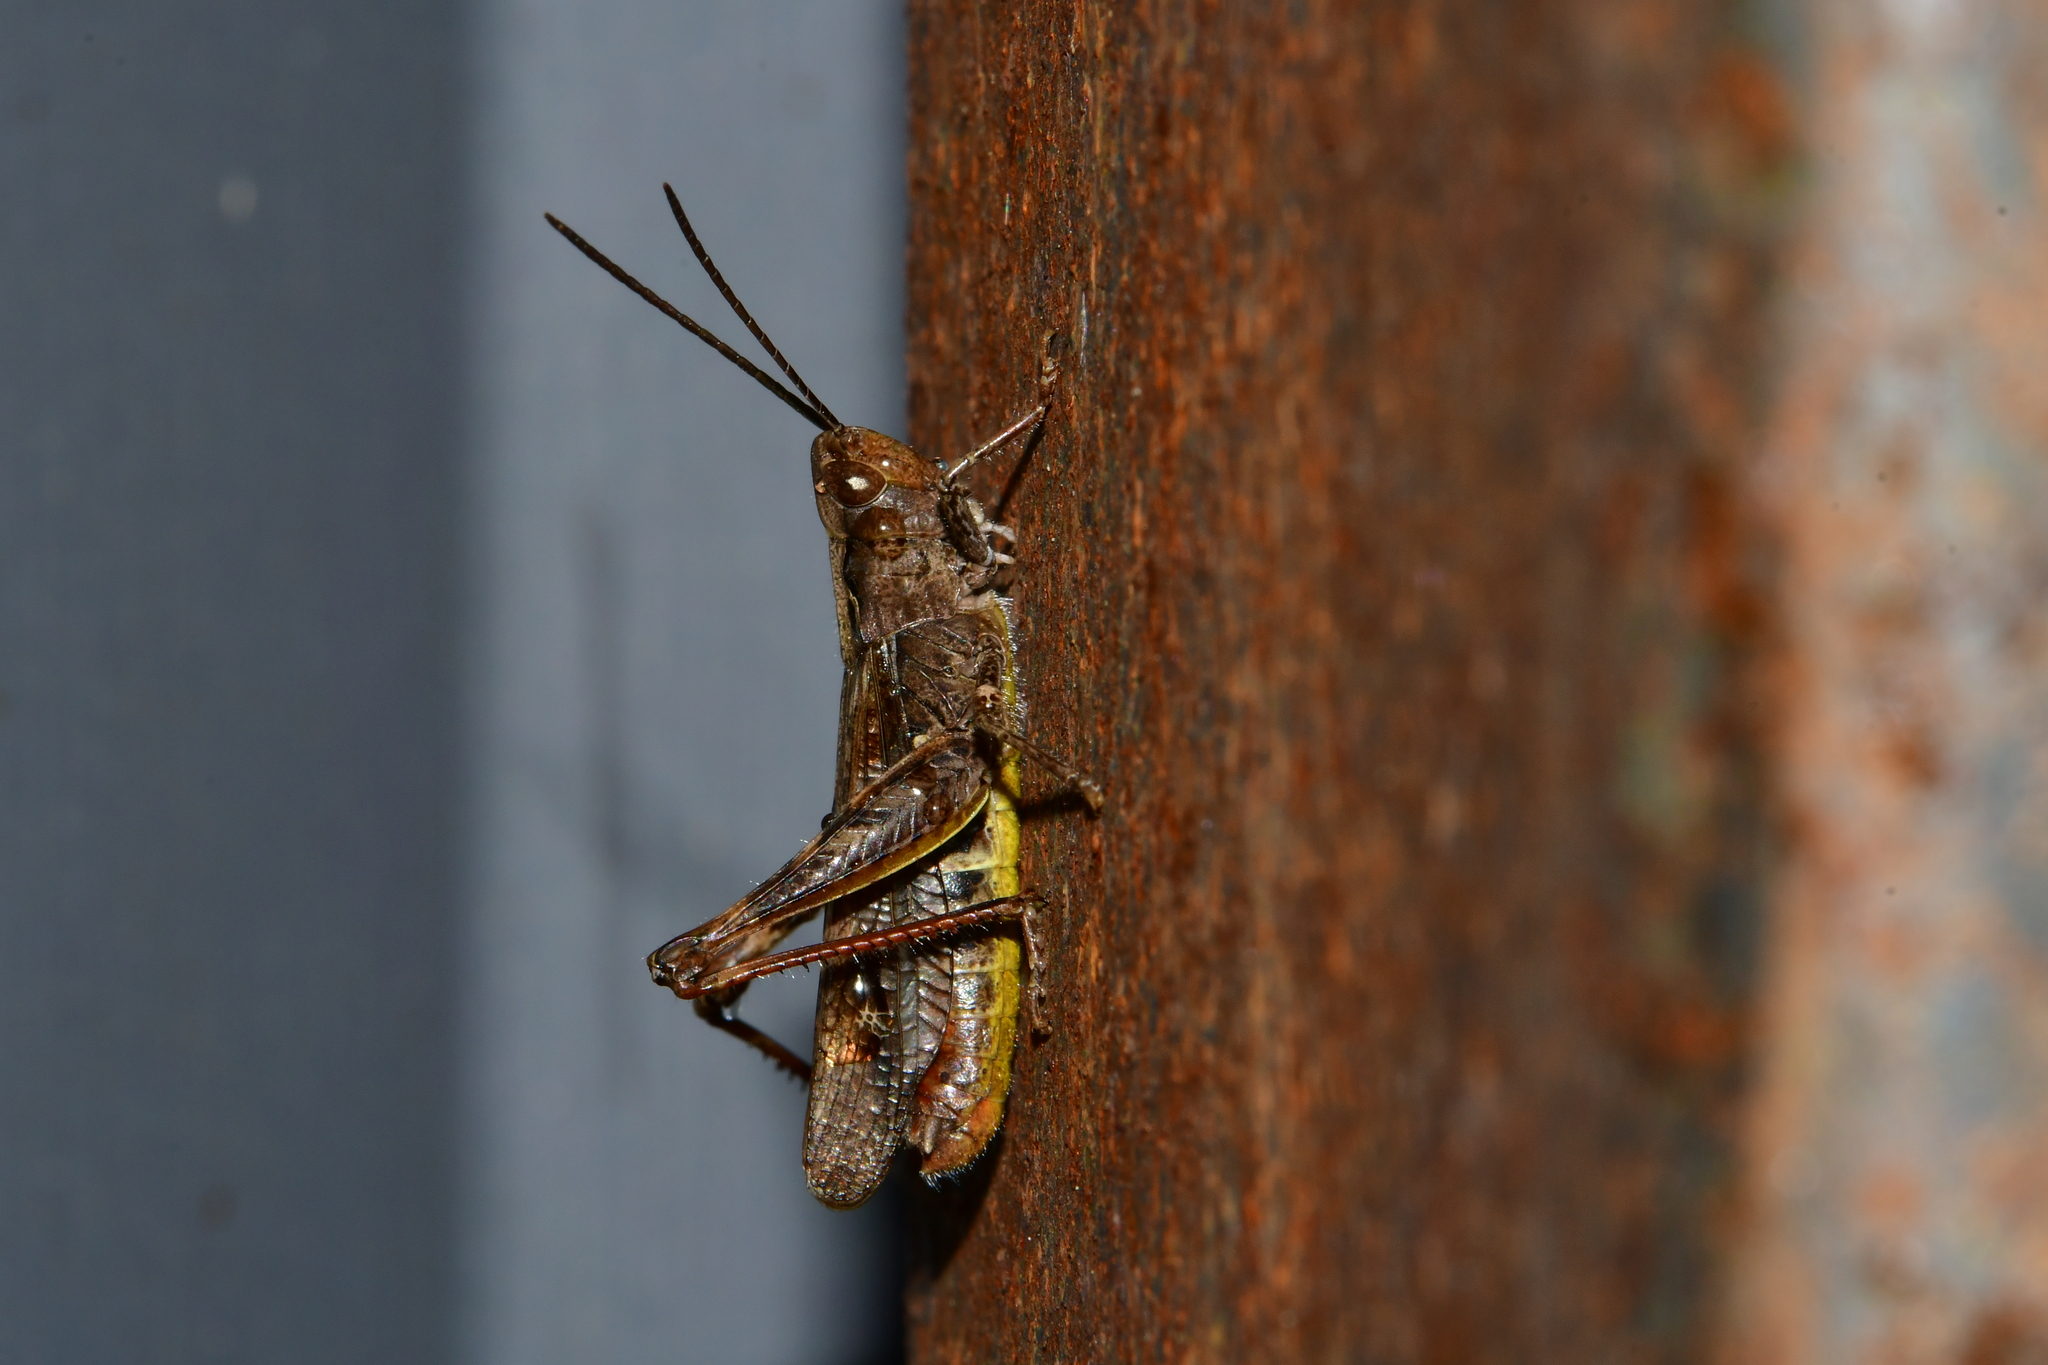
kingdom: Animalia
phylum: Arthropoda
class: Insecta
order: Orthoptera
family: Acrididae
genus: Chorthippus
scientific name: Chorthippus biguttulus
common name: Bow-winged grasshopper
